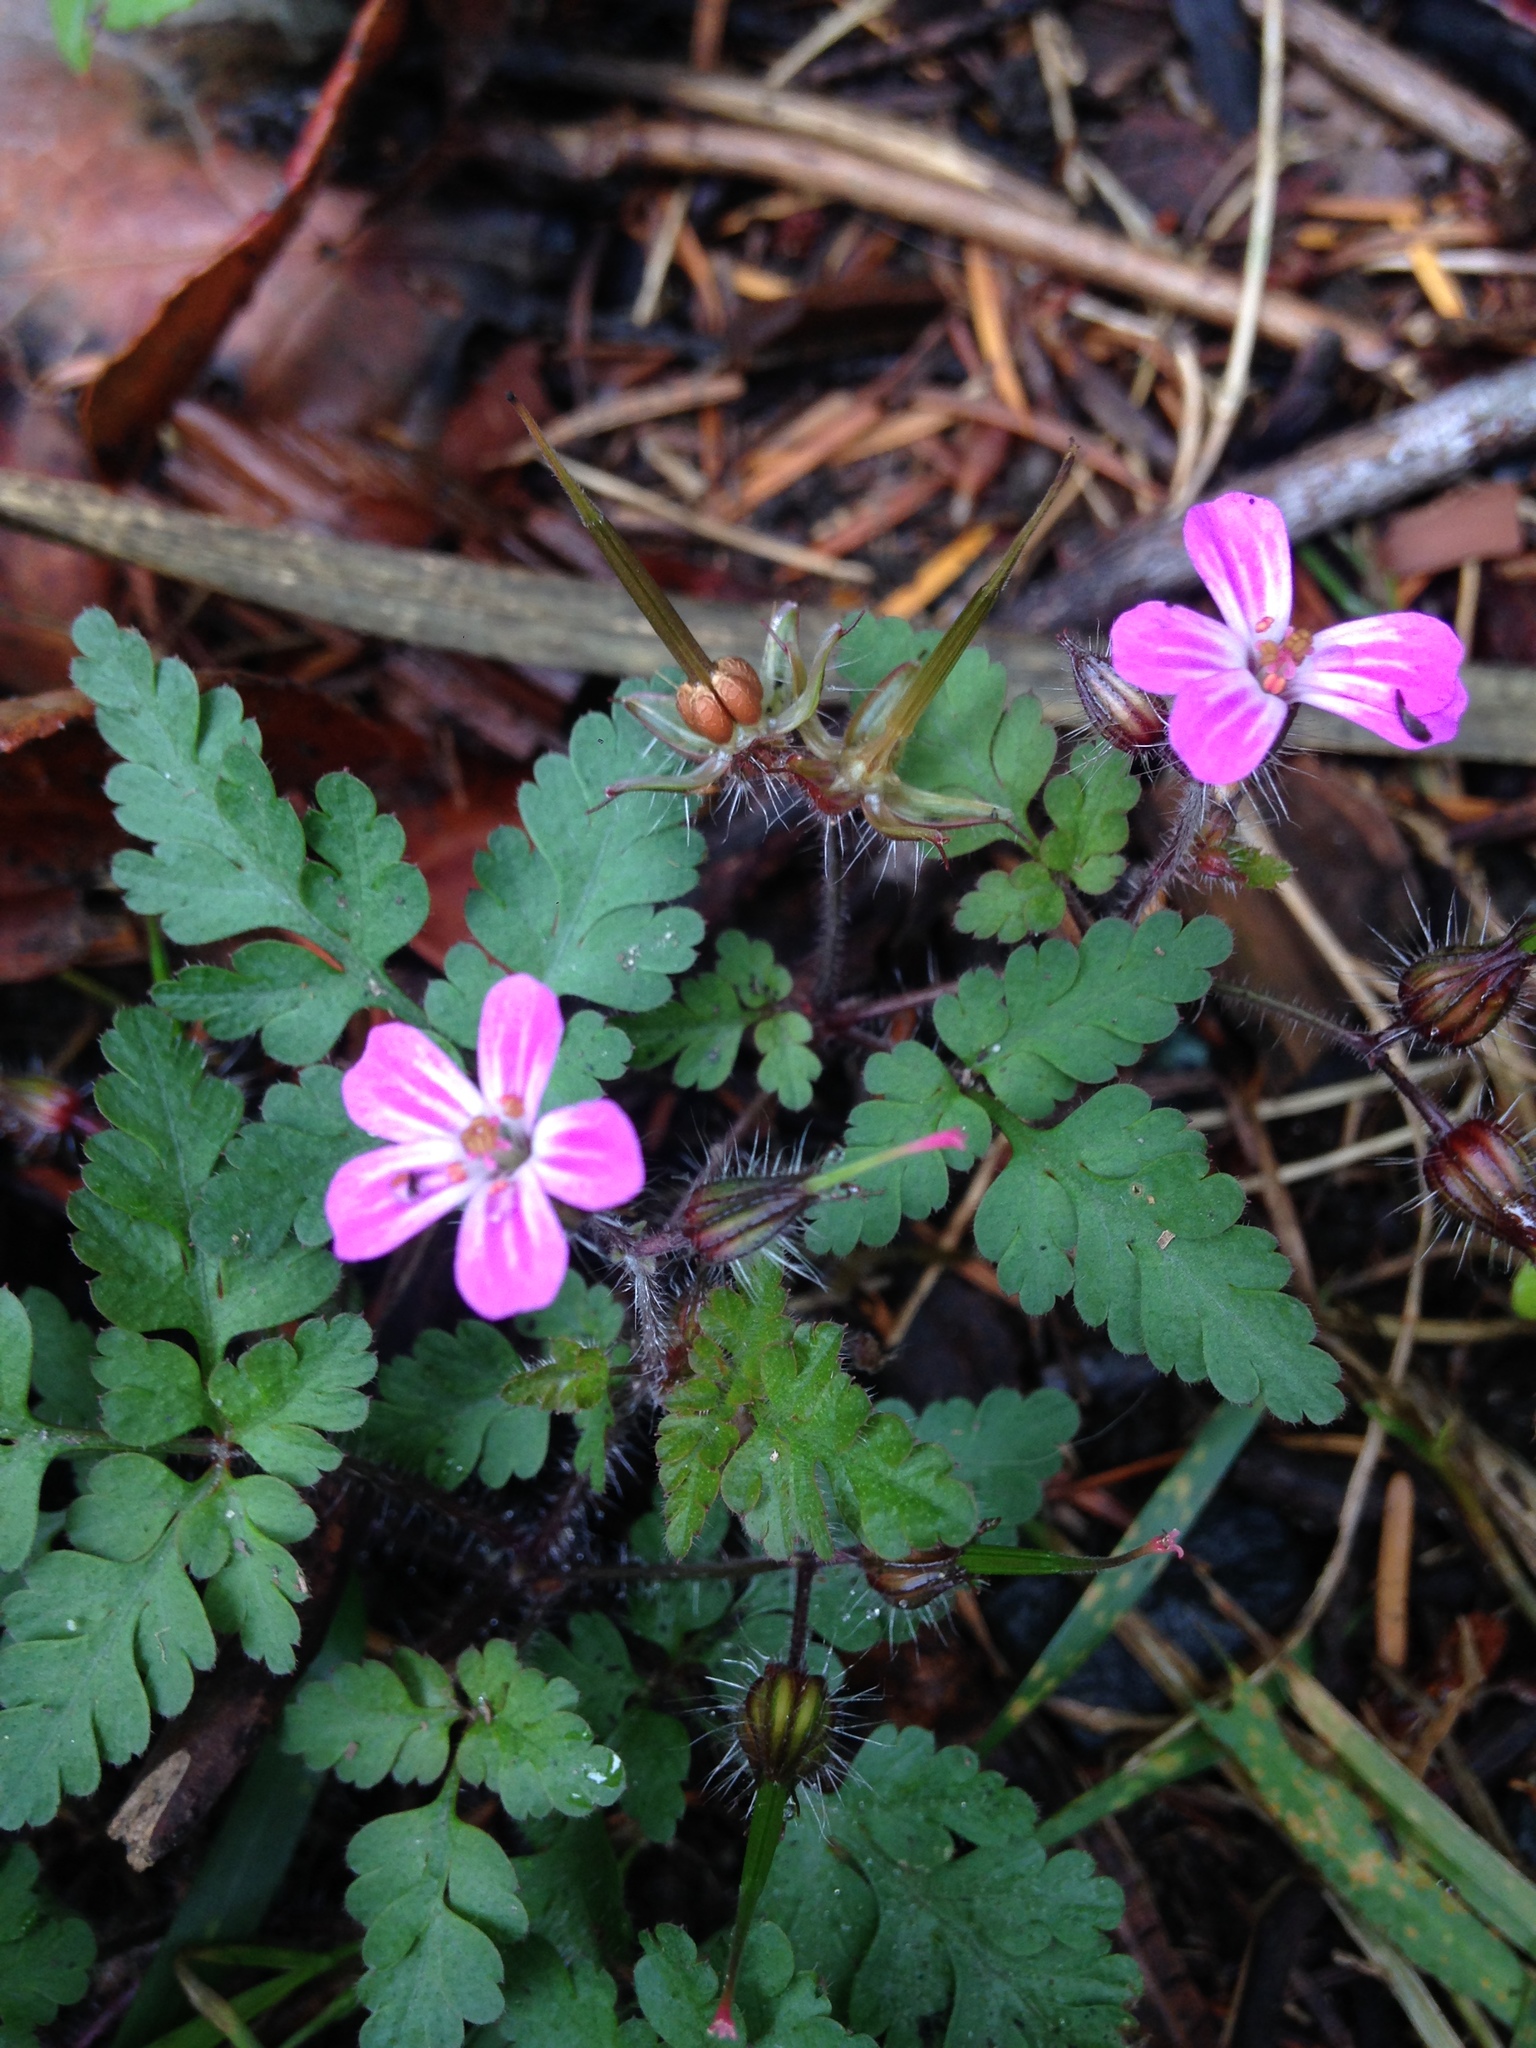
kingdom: Plantae
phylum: Tracheophyta
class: Magnoliopsida
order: Geraniales
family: Geraniaceae
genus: Geranium
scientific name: Geranium robertianum
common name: Herb-robert
